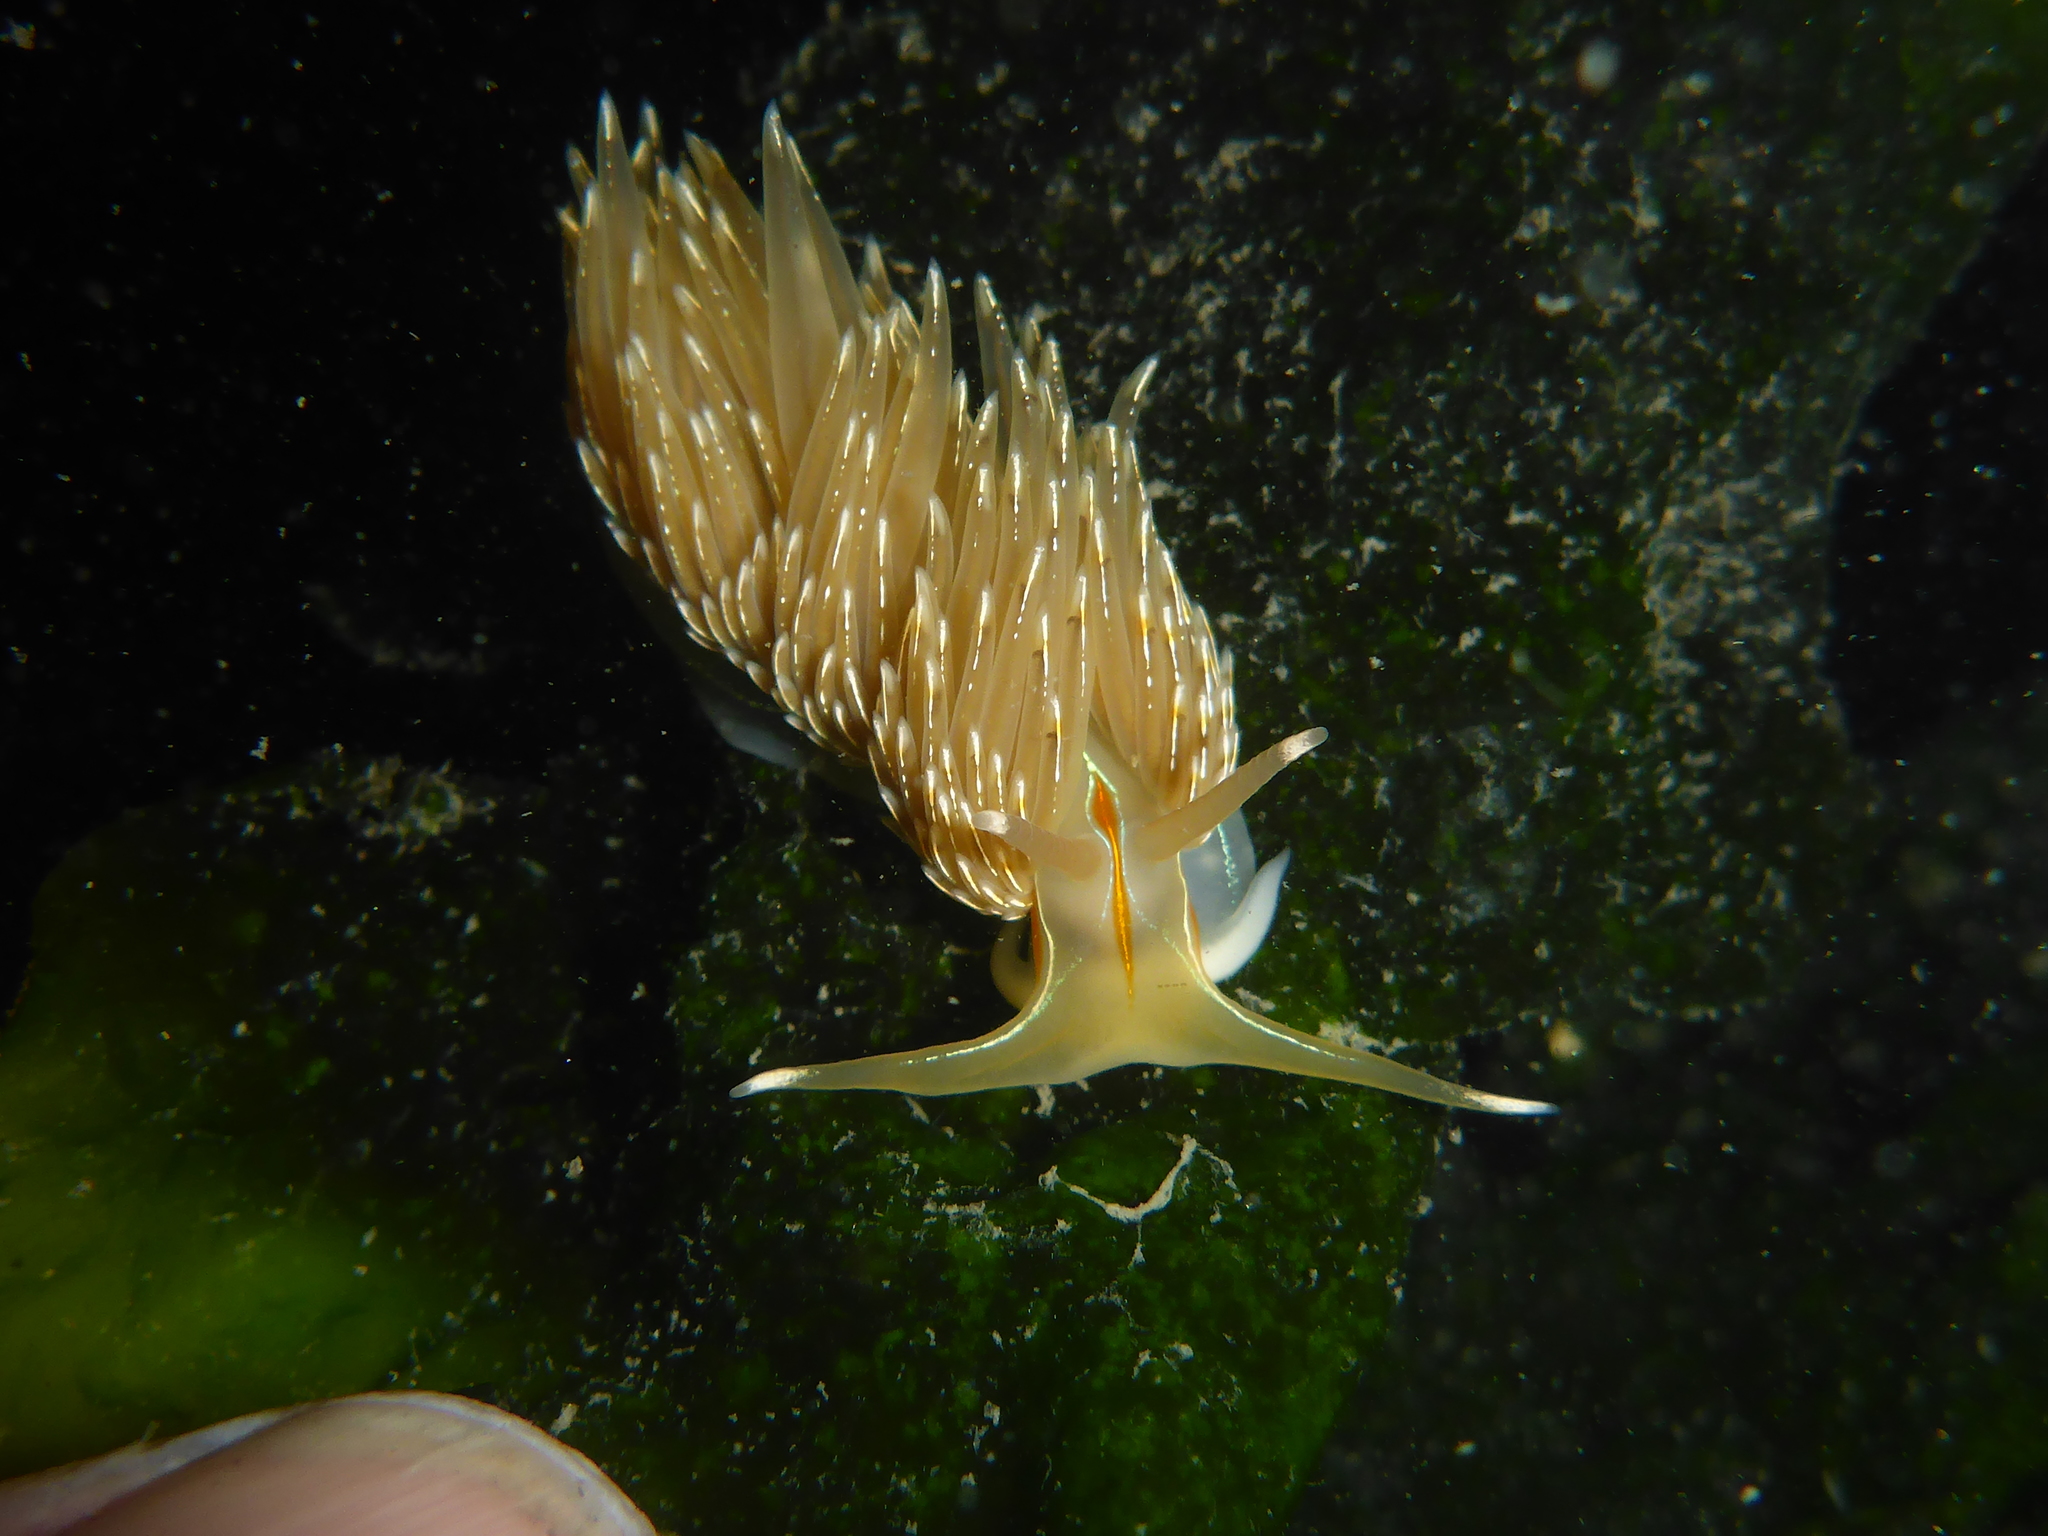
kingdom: Animalia
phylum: Mollusca
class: Gastropoda
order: Nudibranchia
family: Myrrhinidae
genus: Hermissenda
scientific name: Hermissenda crassicornis
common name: Hermissenda
